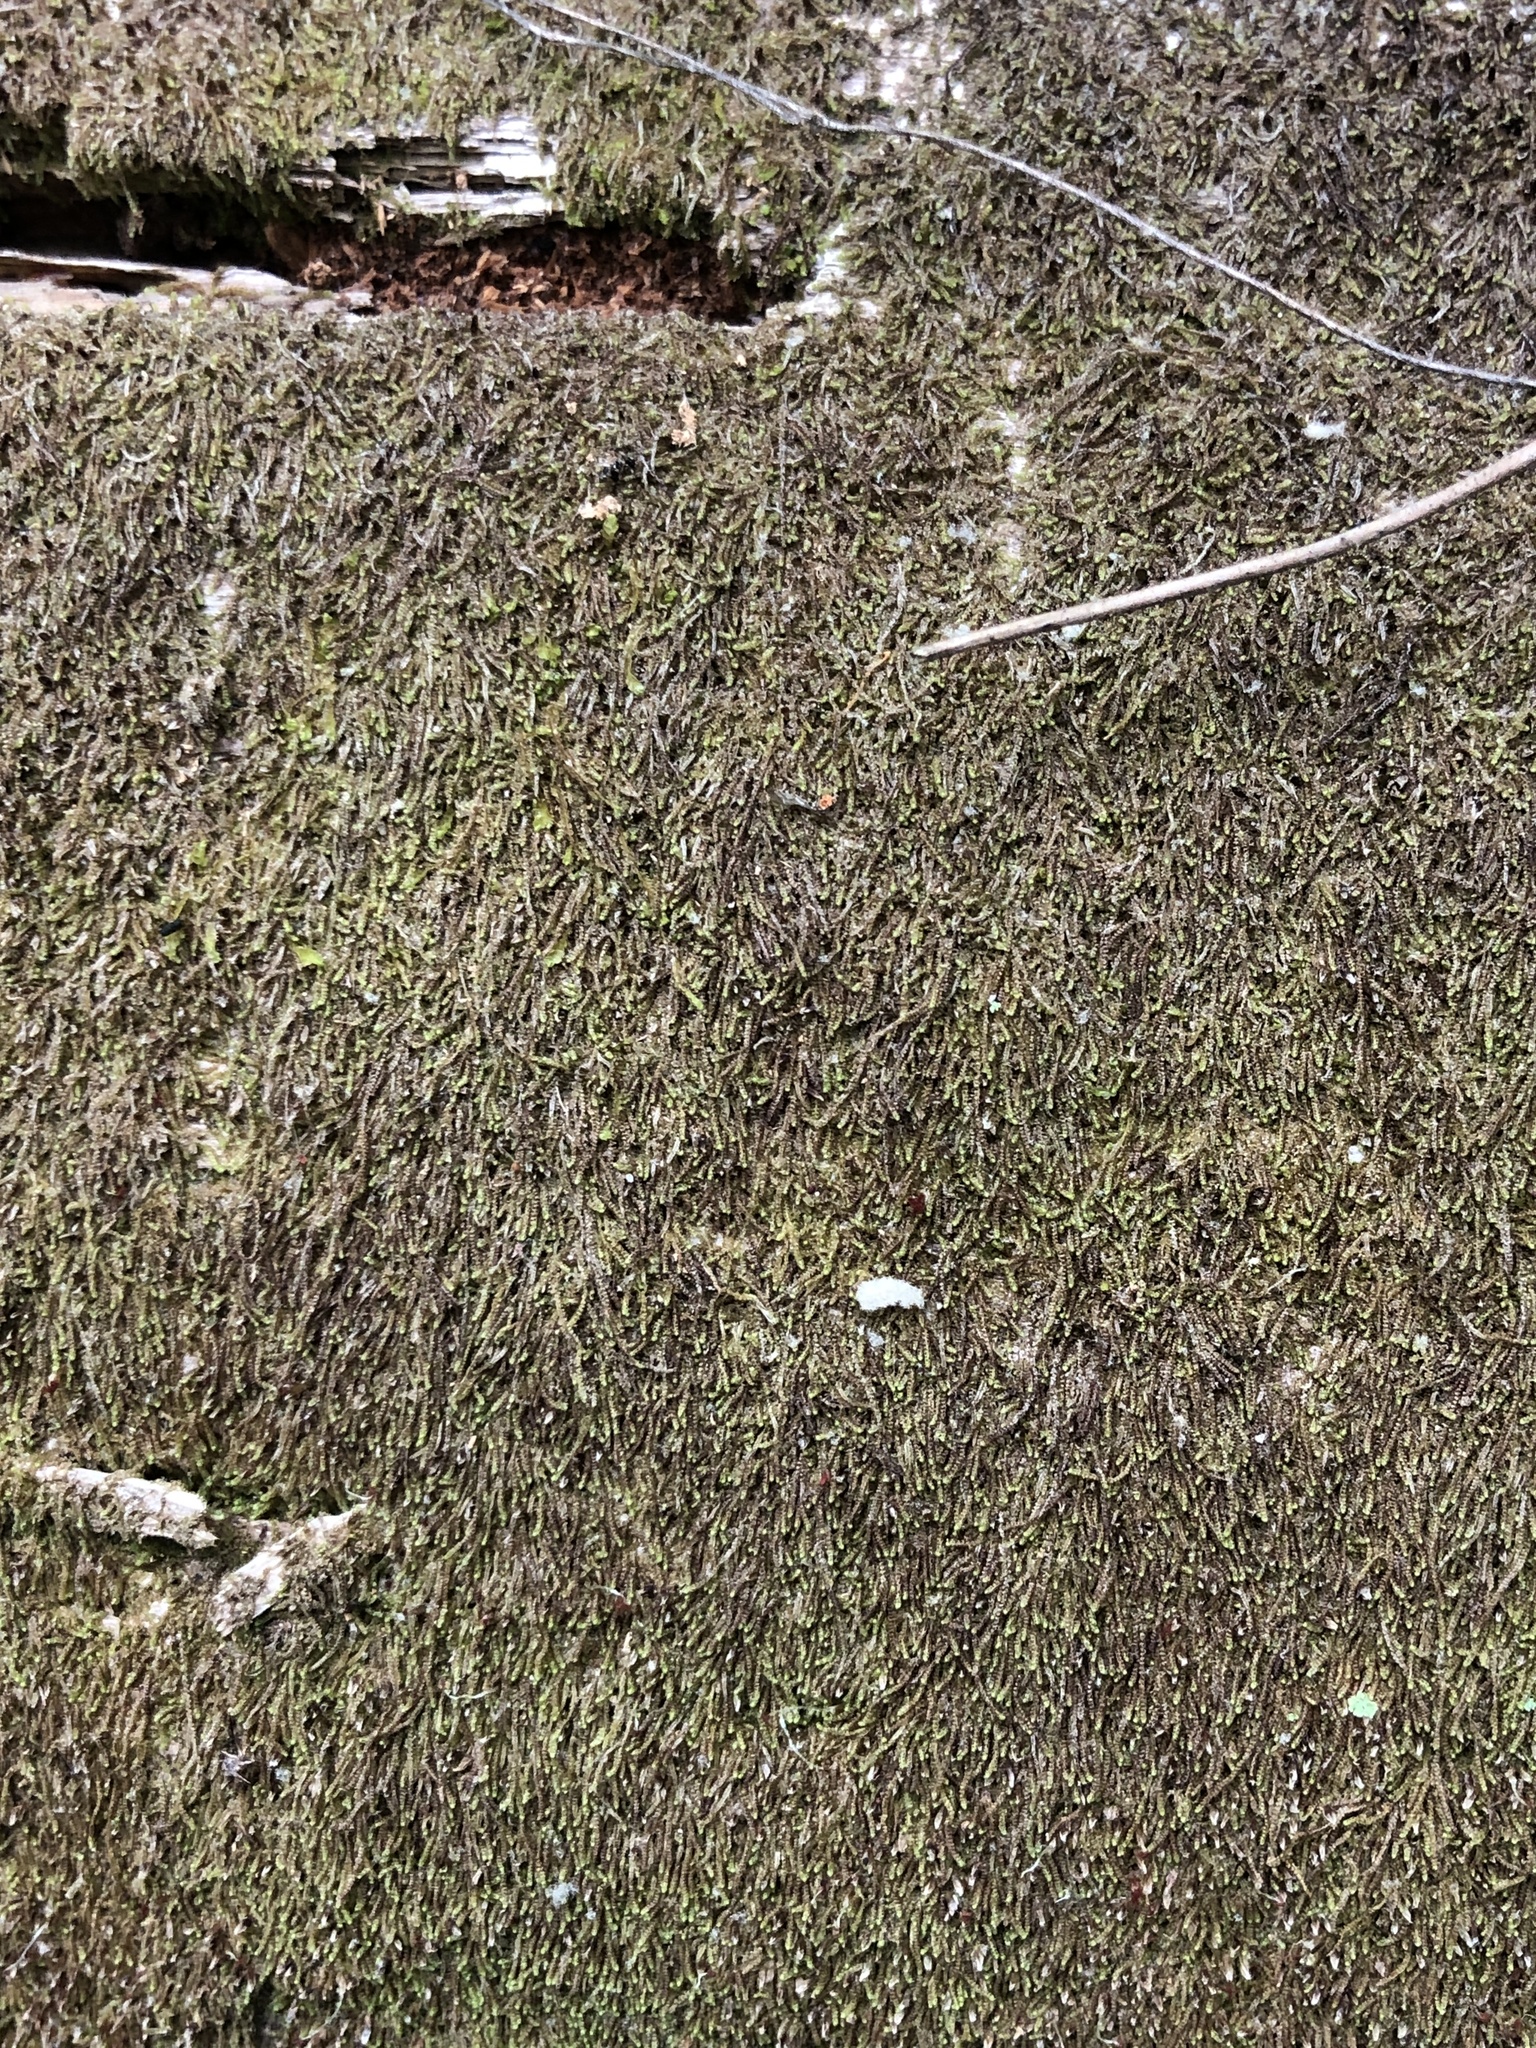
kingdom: Plantae
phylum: Marchantiophyta
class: Jungermanniopsida
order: Jungermanniales
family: Cephaloziaceae
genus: Nowellia
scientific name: Nowellia curvifolia
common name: Wood rustwort
